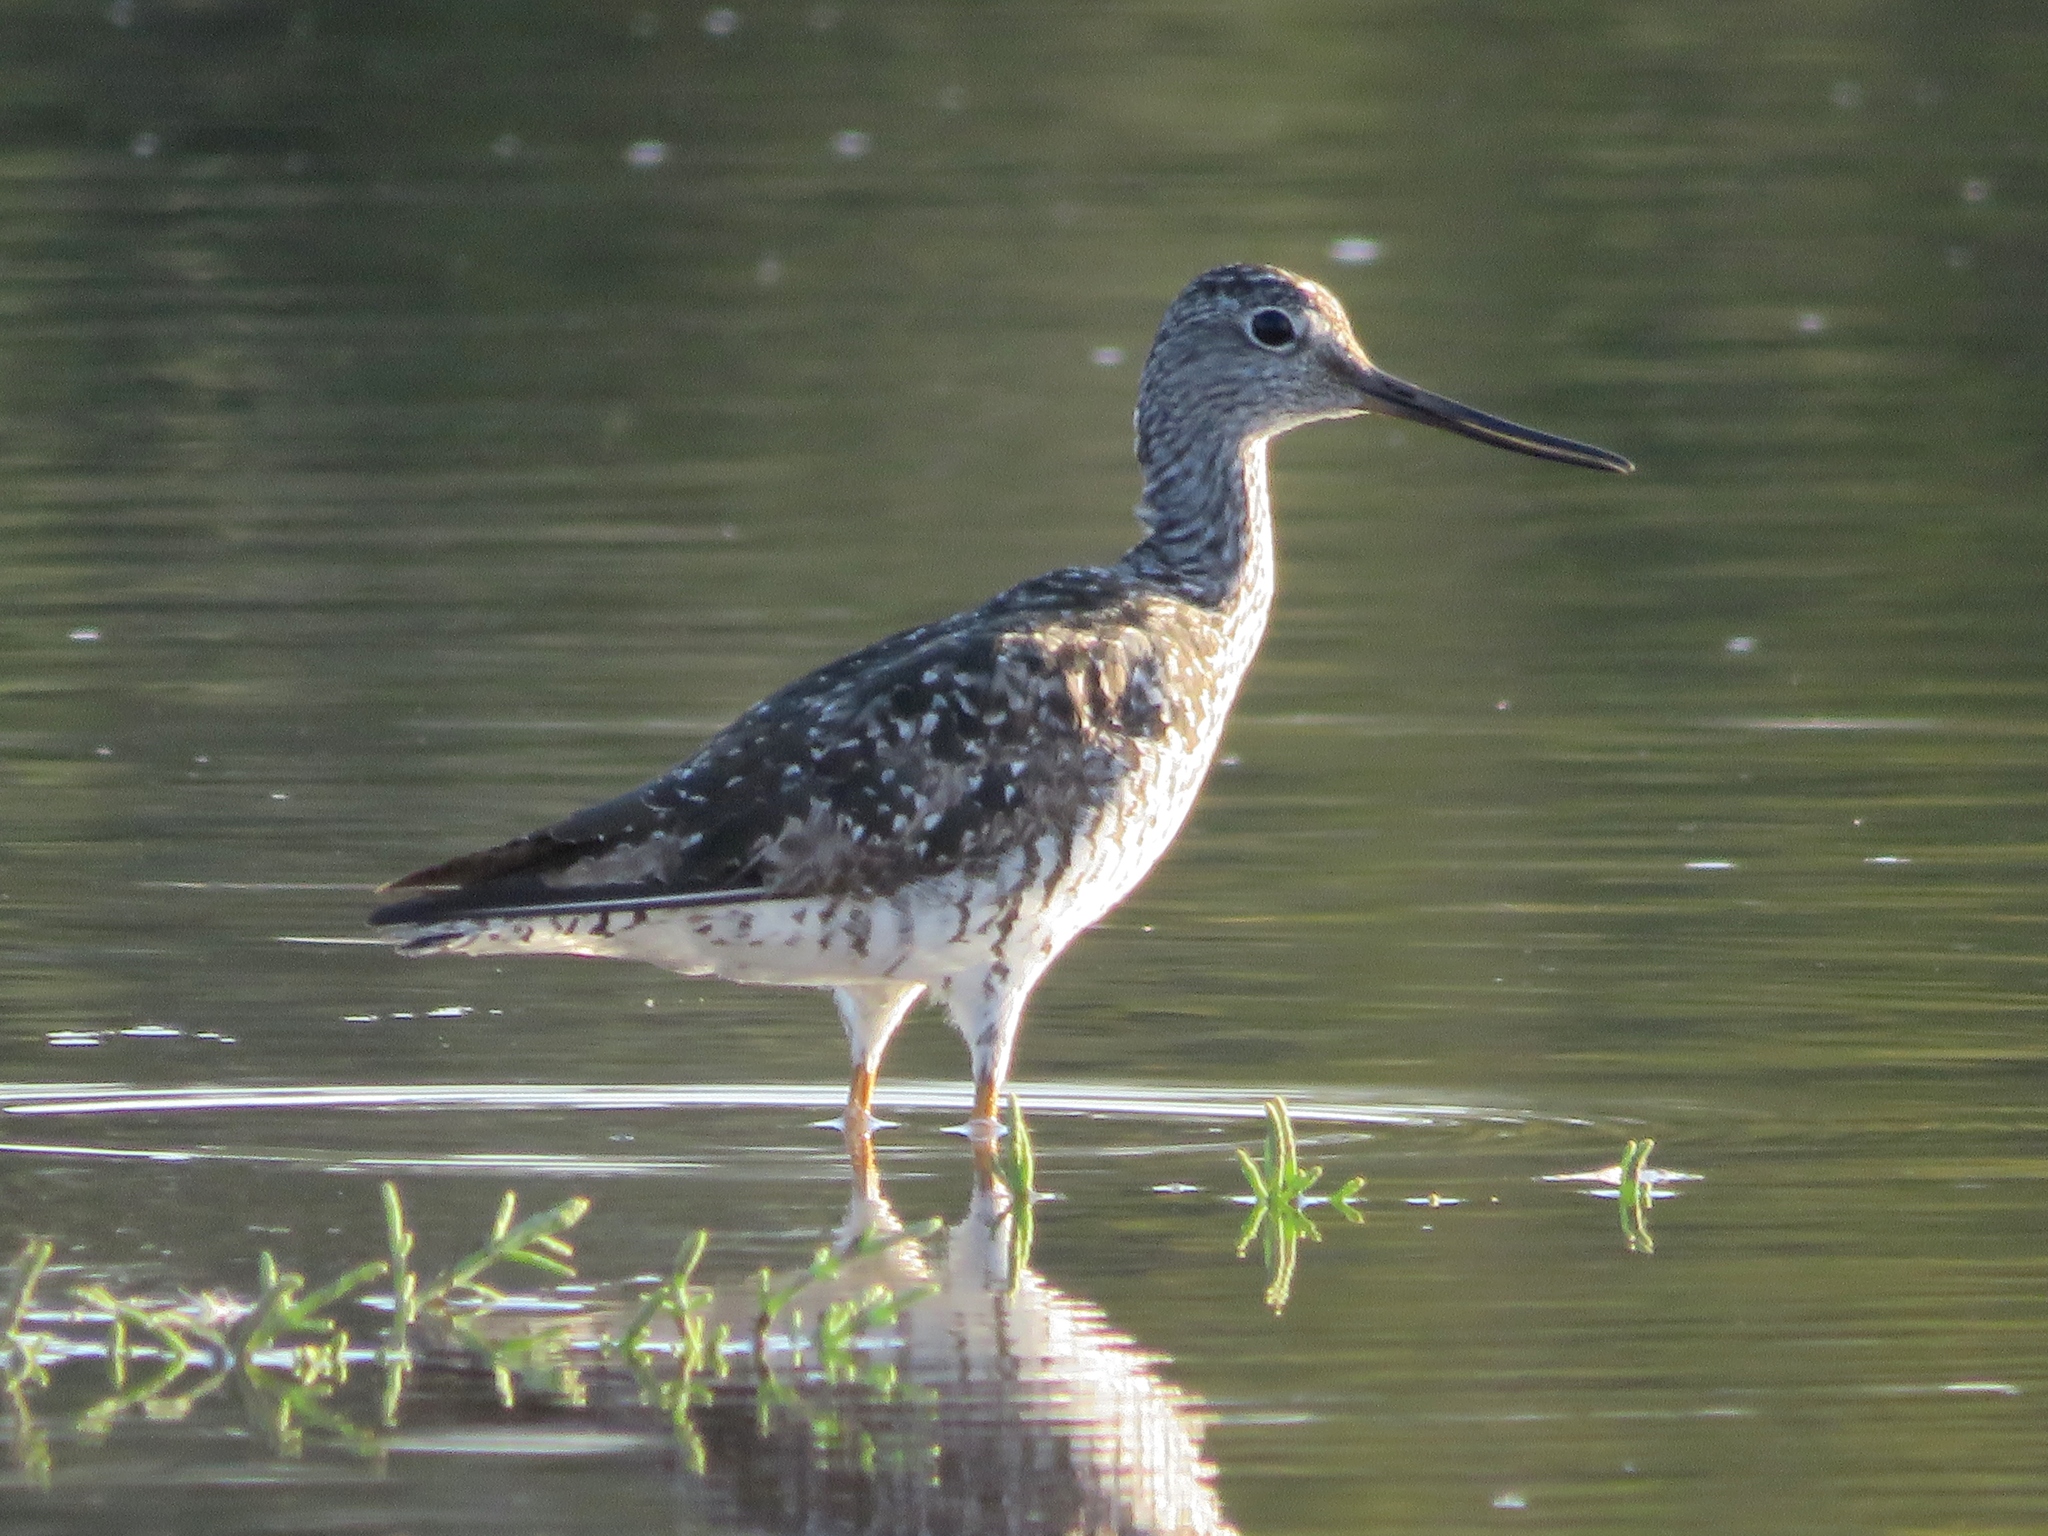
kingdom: Animalia
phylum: Chordata
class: Aves
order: Charadriiformes
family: Scolopacidae
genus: Tringa
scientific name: Tringa melanoleuca
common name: Greater yellowlegs
